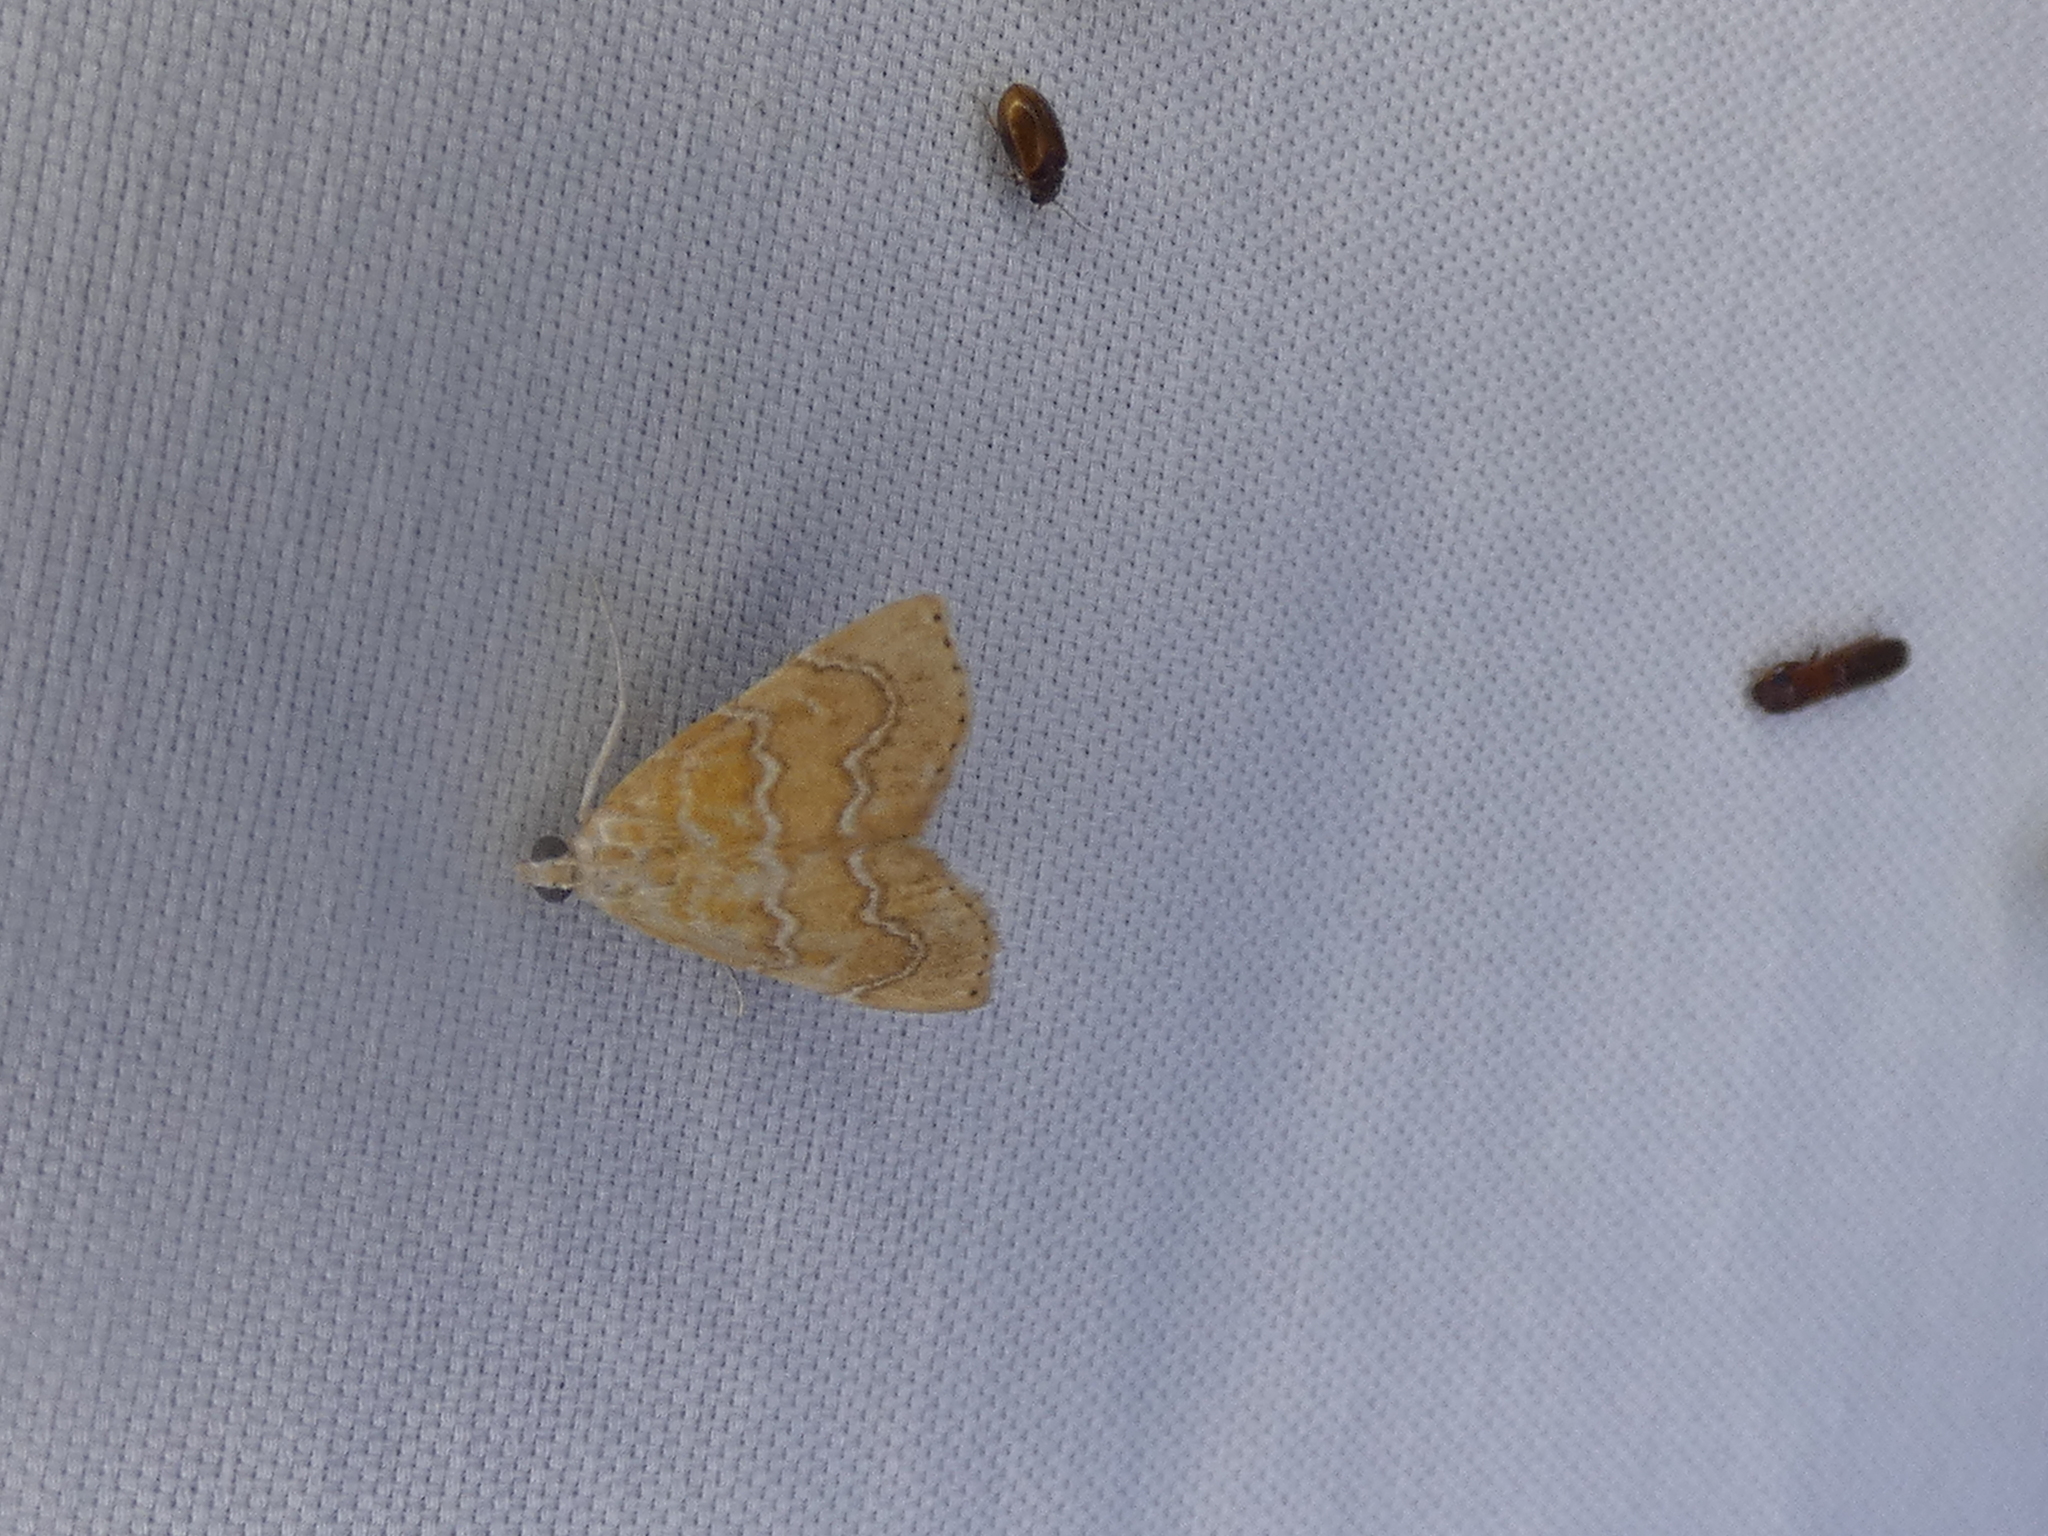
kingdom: Animalia
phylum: Arthropoda
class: Insecta
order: Lepidoptera
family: Crambidae
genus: Glaphyria
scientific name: Glaphyria sesquistrialis
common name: White-roped glaphyria
